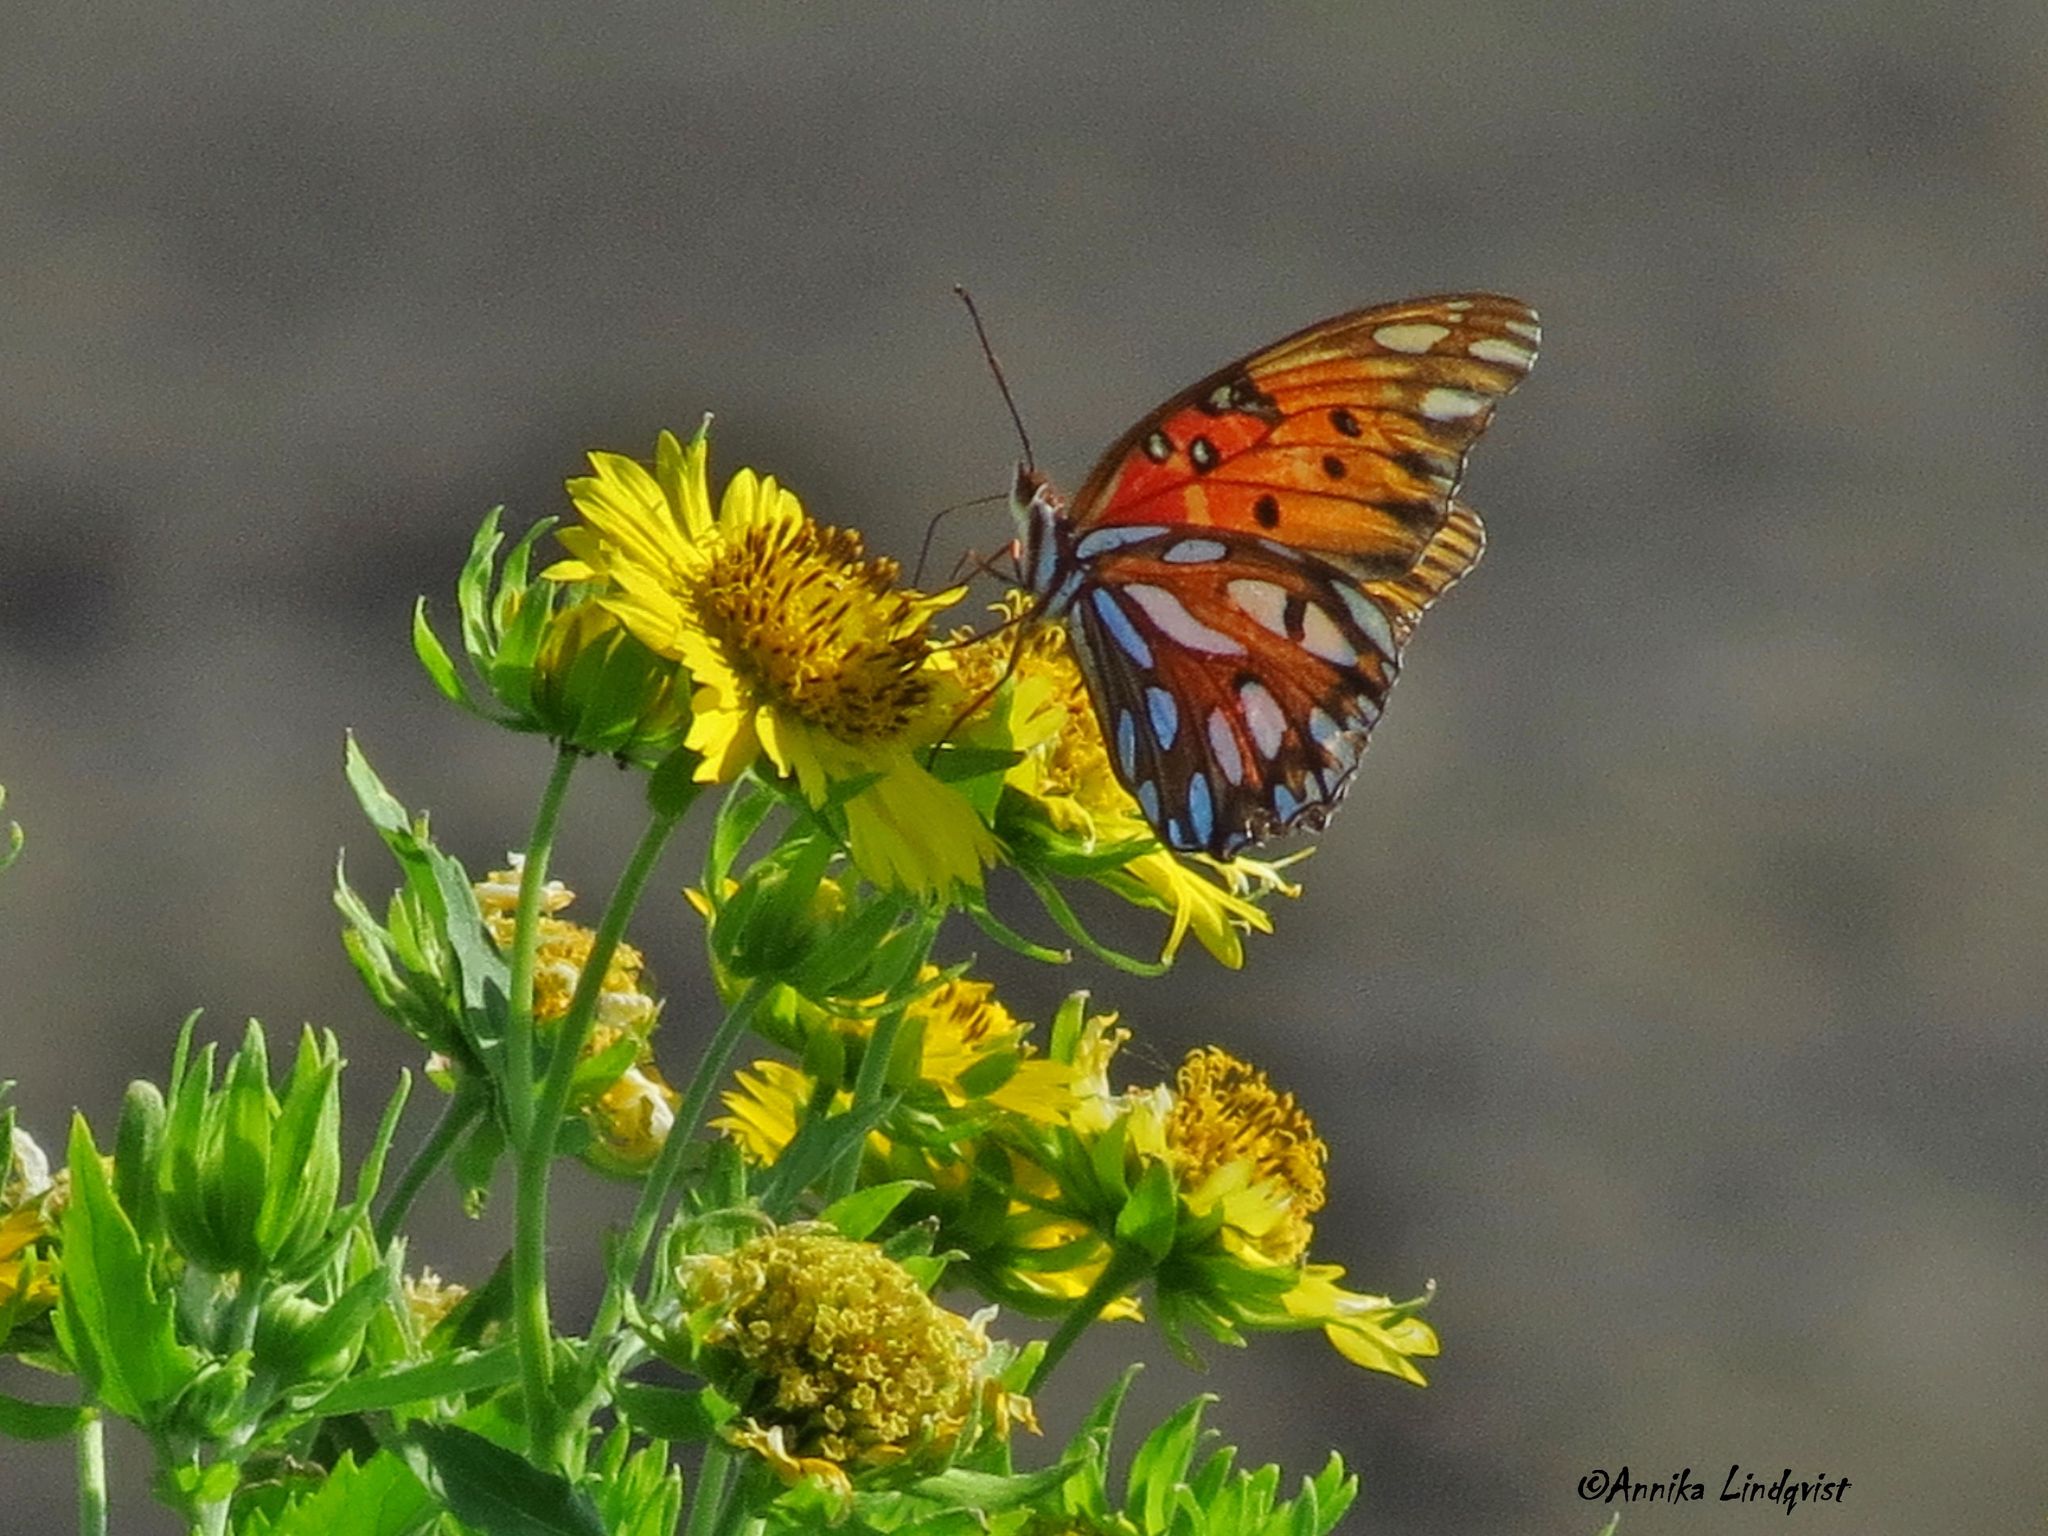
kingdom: Animalia
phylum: Arthropoda
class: Insecta
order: Lepidoptera
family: Nymphalidae
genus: Dione
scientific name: Dione vanillae
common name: Gulf fritillary
